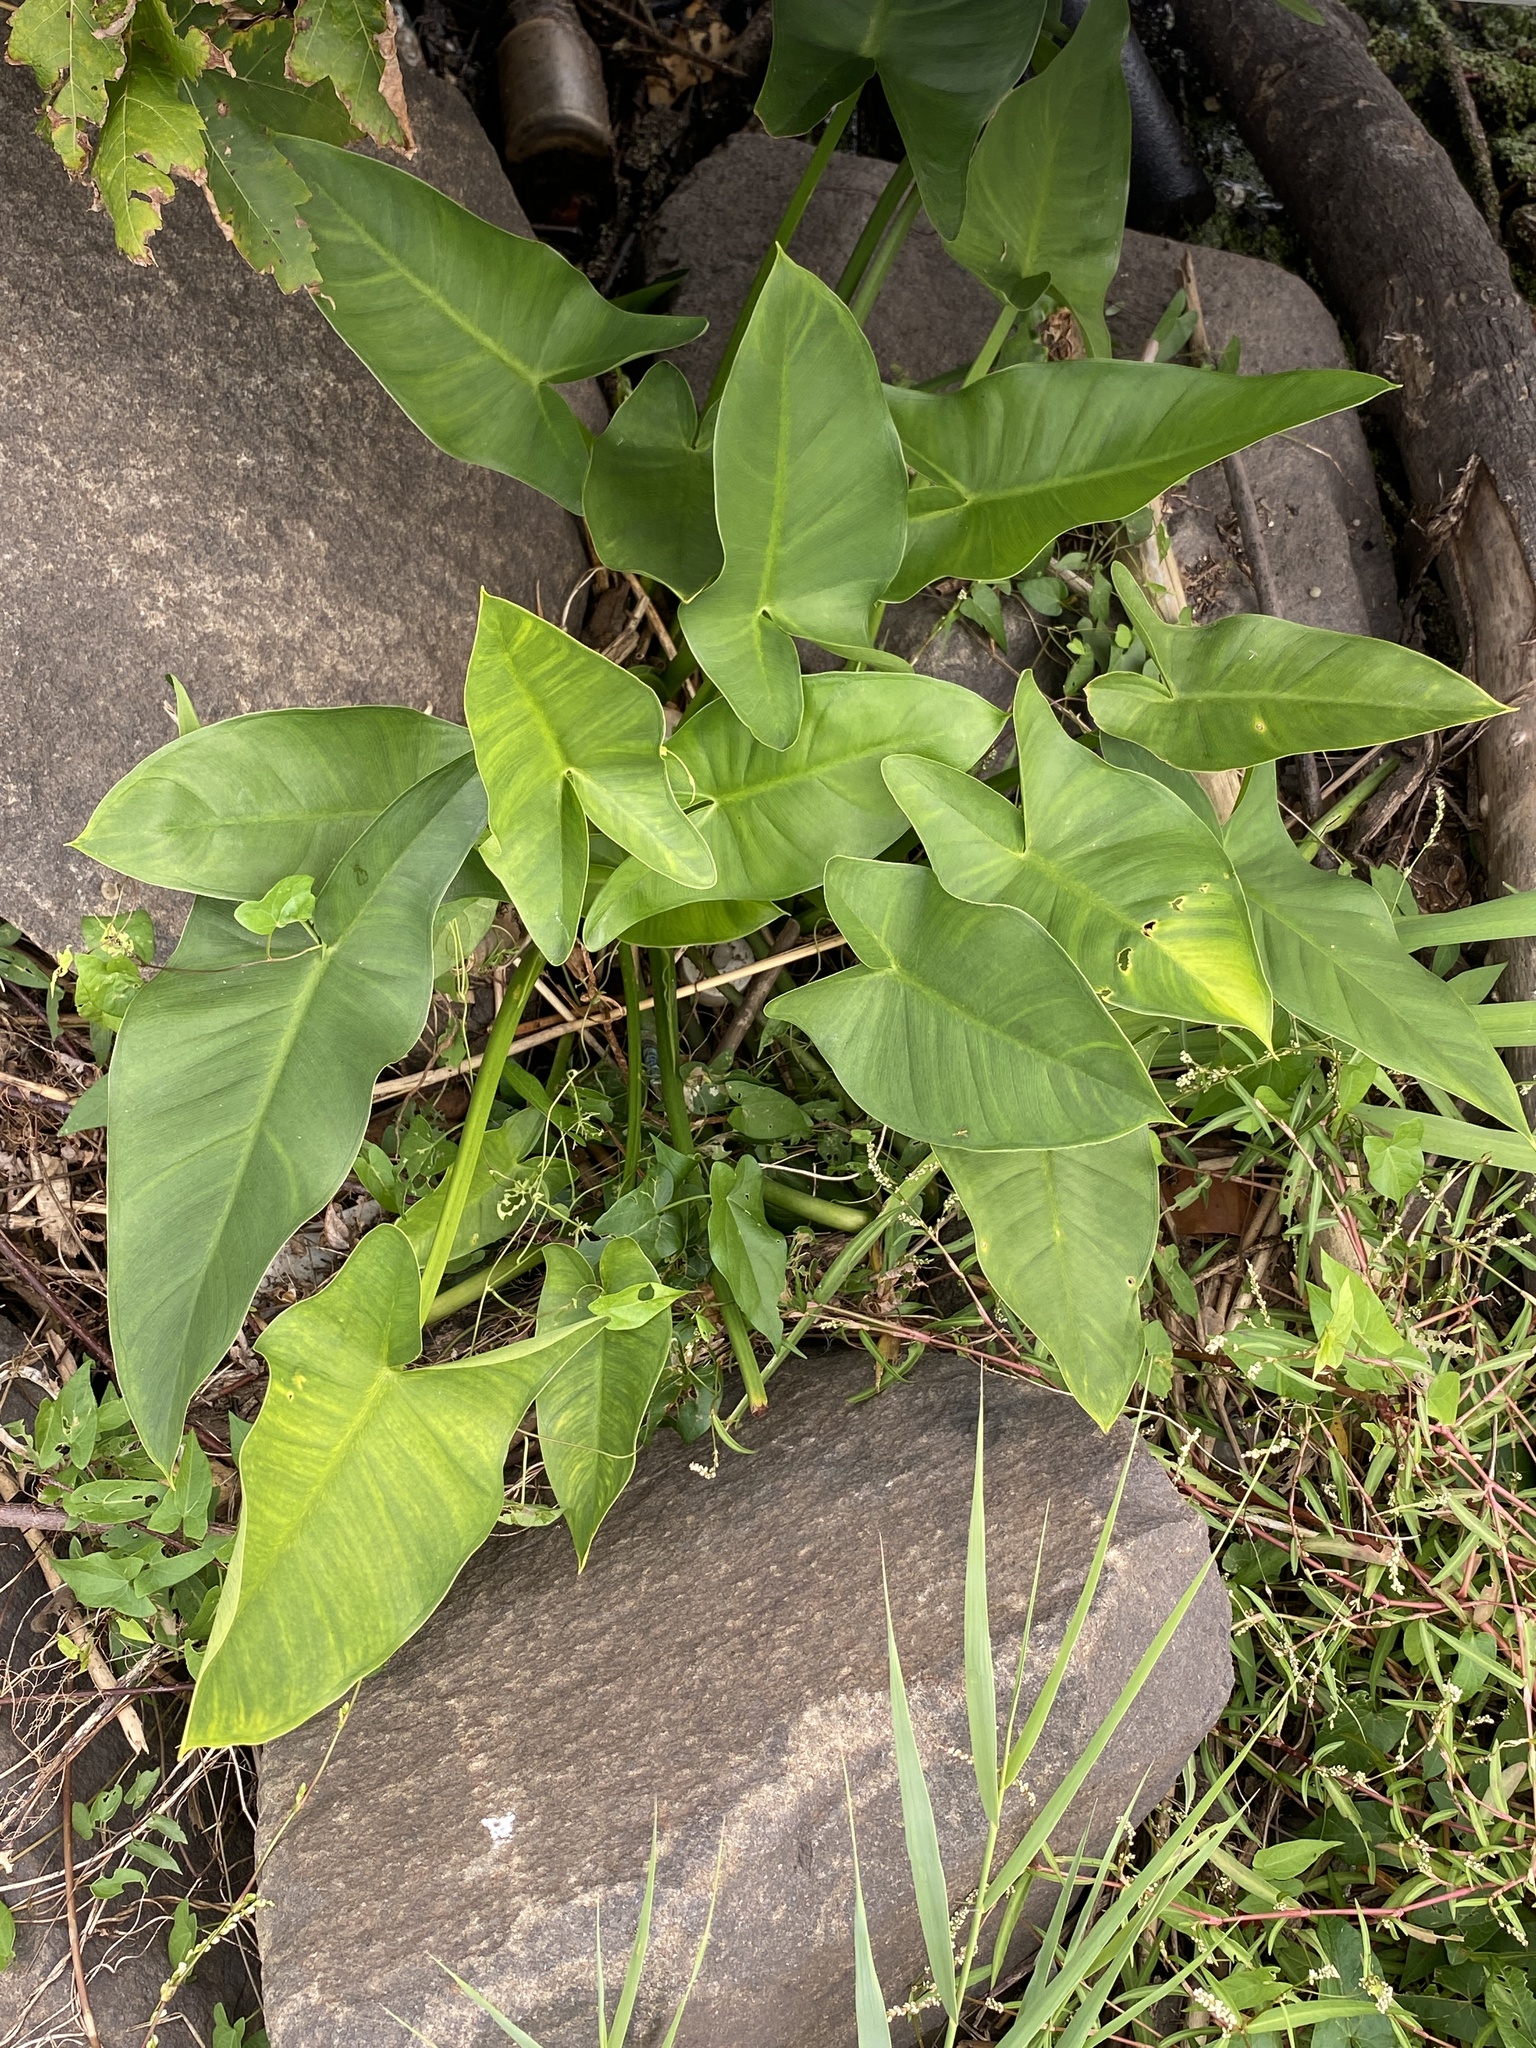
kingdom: Plantae
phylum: Tracheophyta
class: Liliopsida
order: Alismatales
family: Araceae
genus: Peltandra
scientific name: Peltandra virginica
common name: Arrow arum
